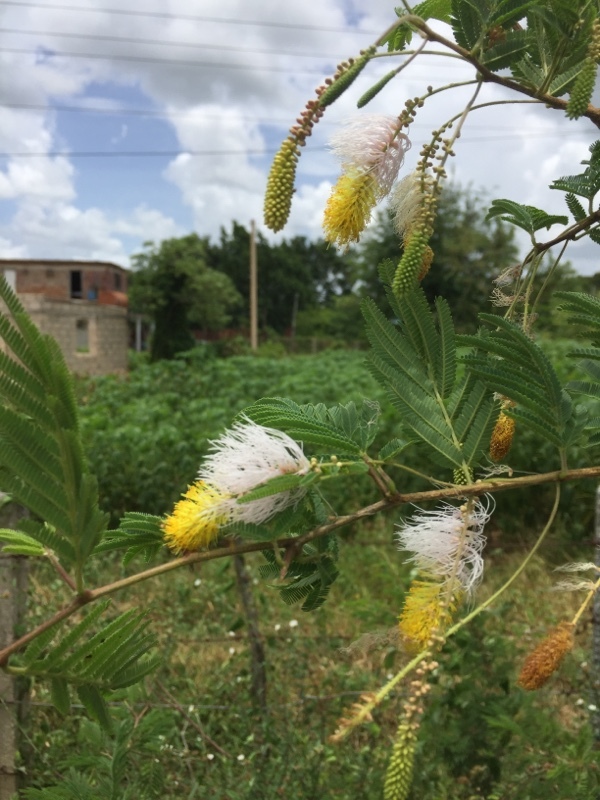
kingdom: Plantae
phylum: Tracheophyta
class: Magnoliopsida
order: Fabales
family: Fabaceae
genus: Dichrostachys
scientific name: Dichrostachys cinerea
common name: Sicklebush
